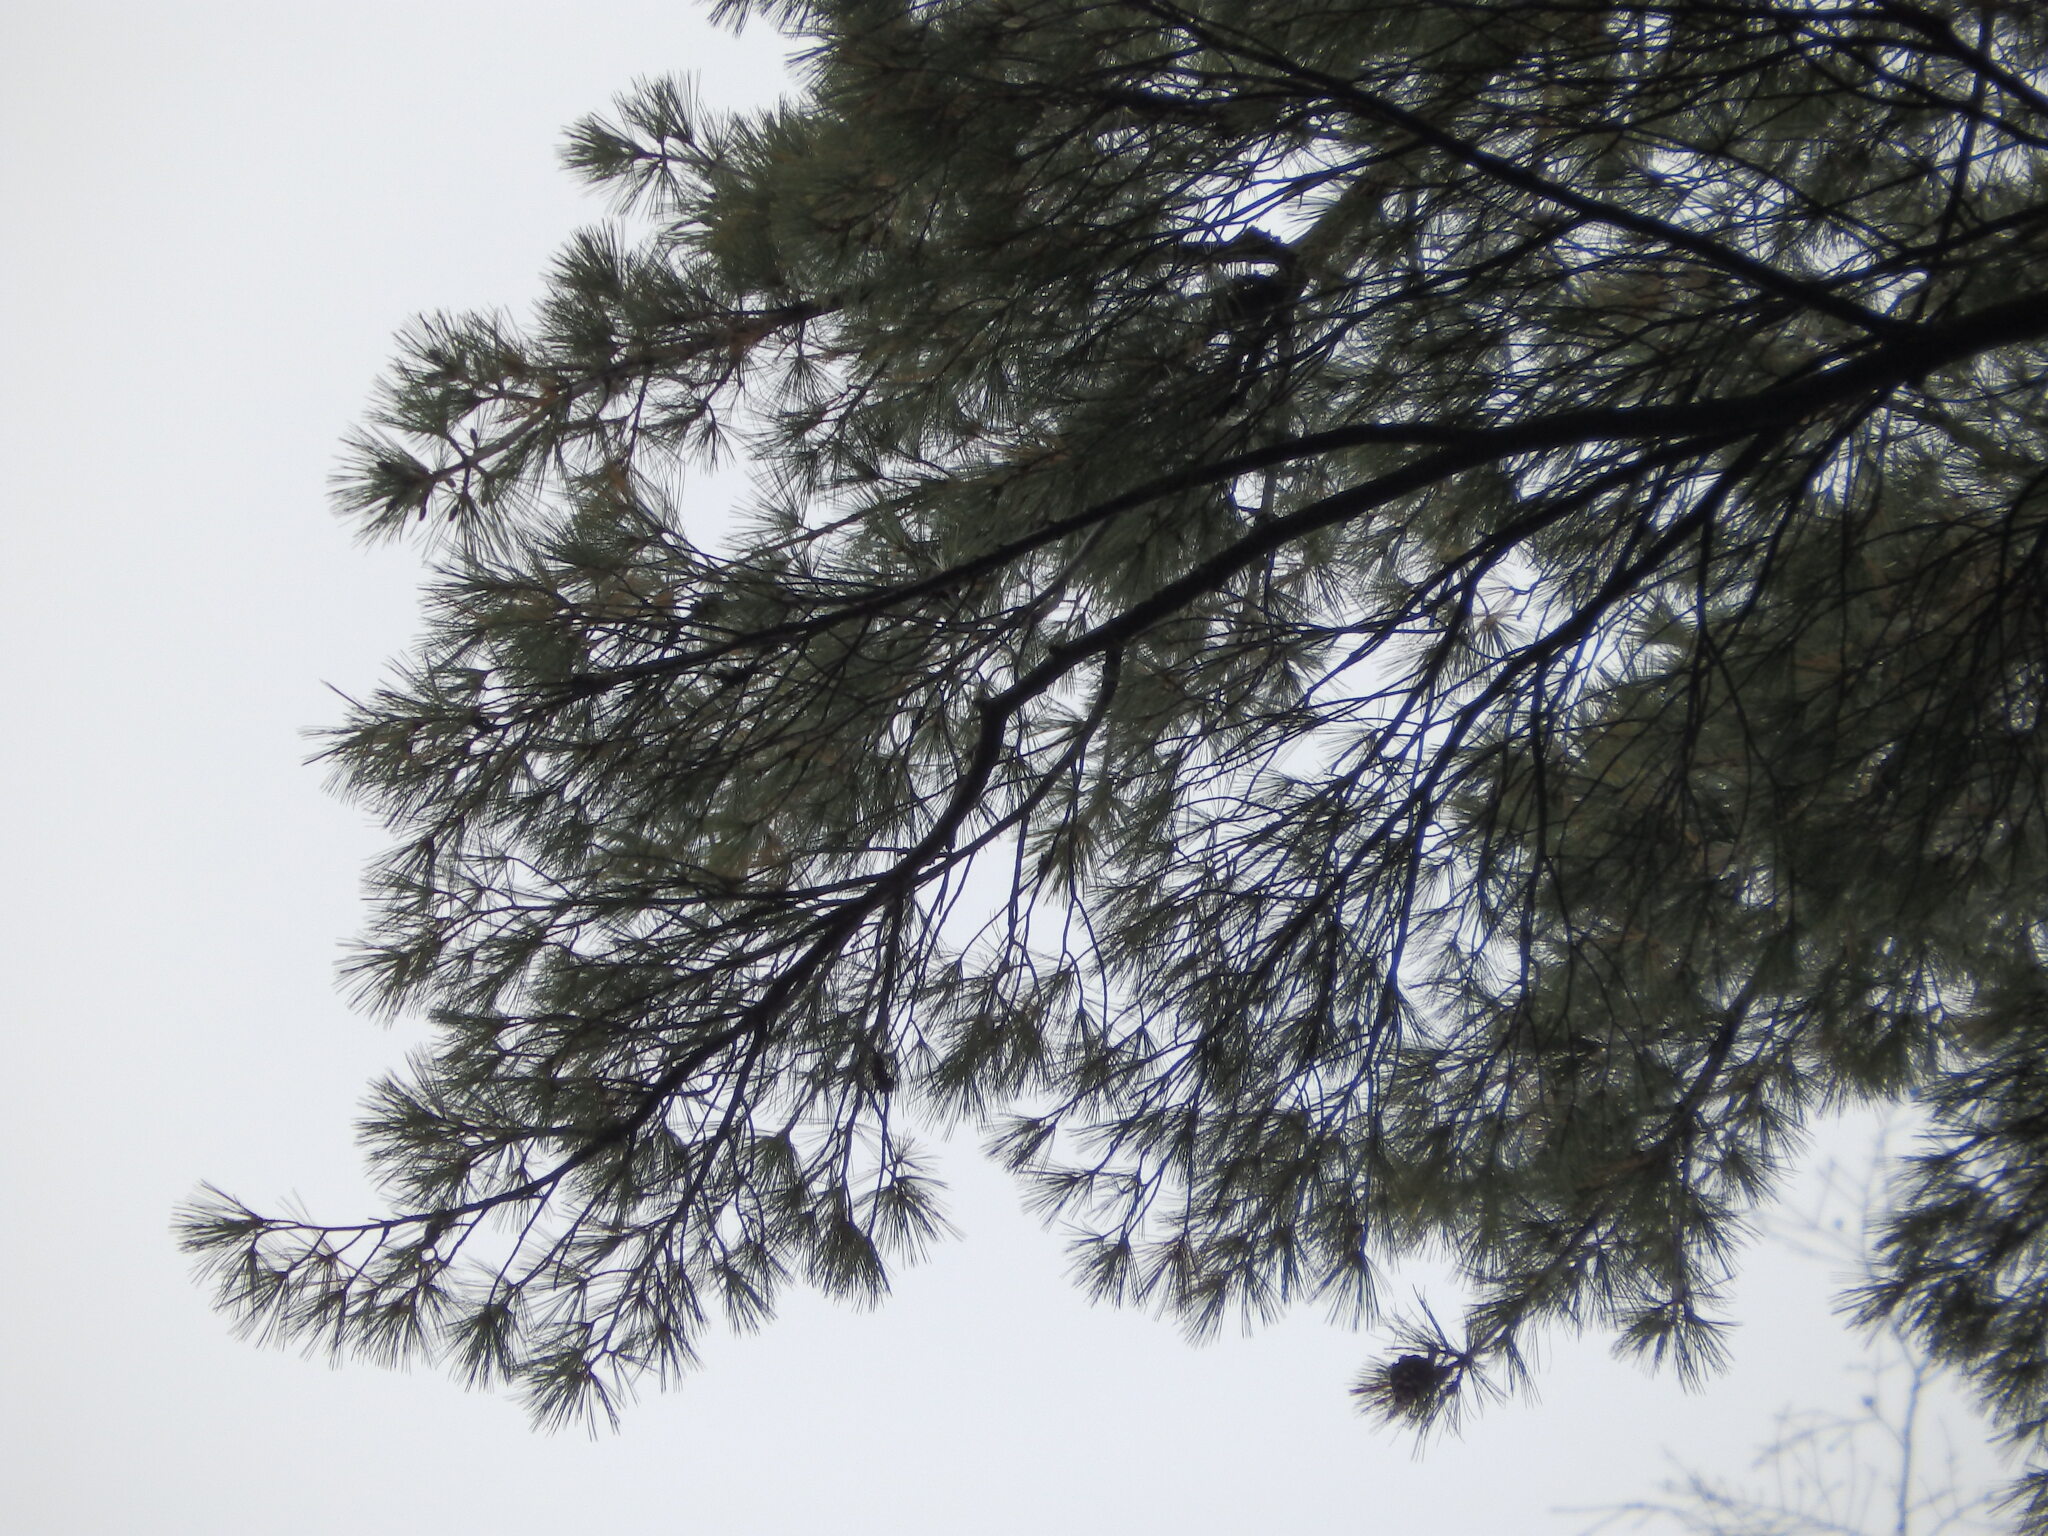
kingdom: Plantae
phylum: Tracheophyta
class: Pinopsida
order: Pinales
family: Pinaceae
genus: Pinus
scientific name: Pinus strobus
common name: Weymouth pine
